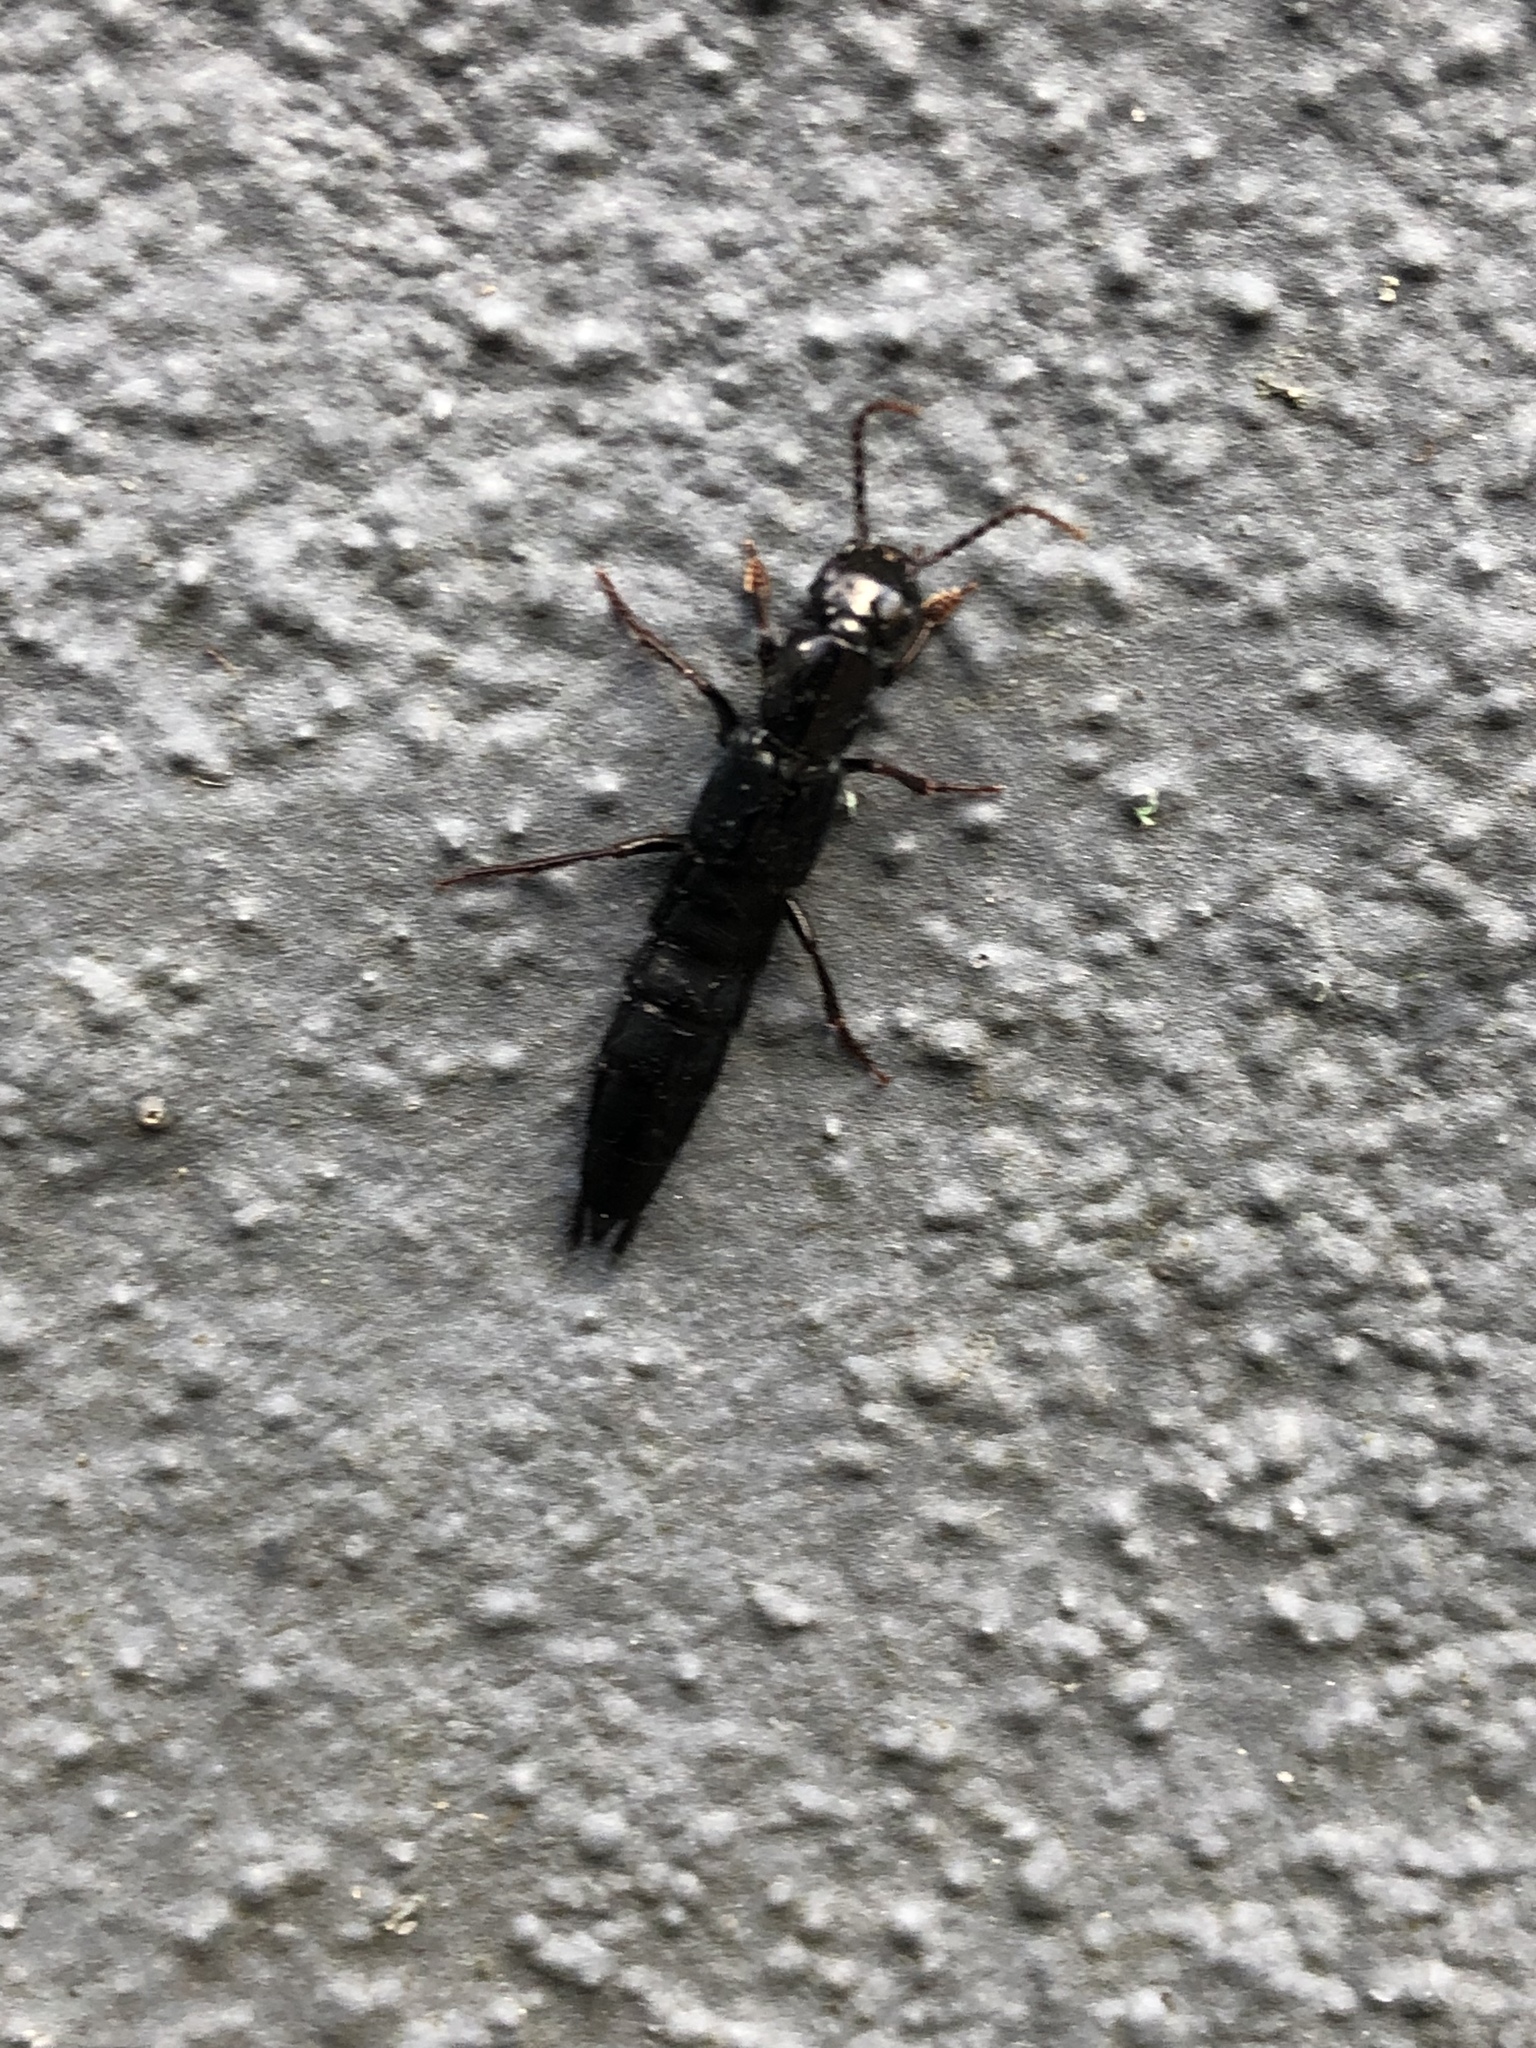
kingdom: Animalia
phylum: Arthropoda
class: Insecta
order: Coleoptera
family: Staphylinidae
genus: Tasgius
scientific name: Tasgius ater
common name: Staph beetle
